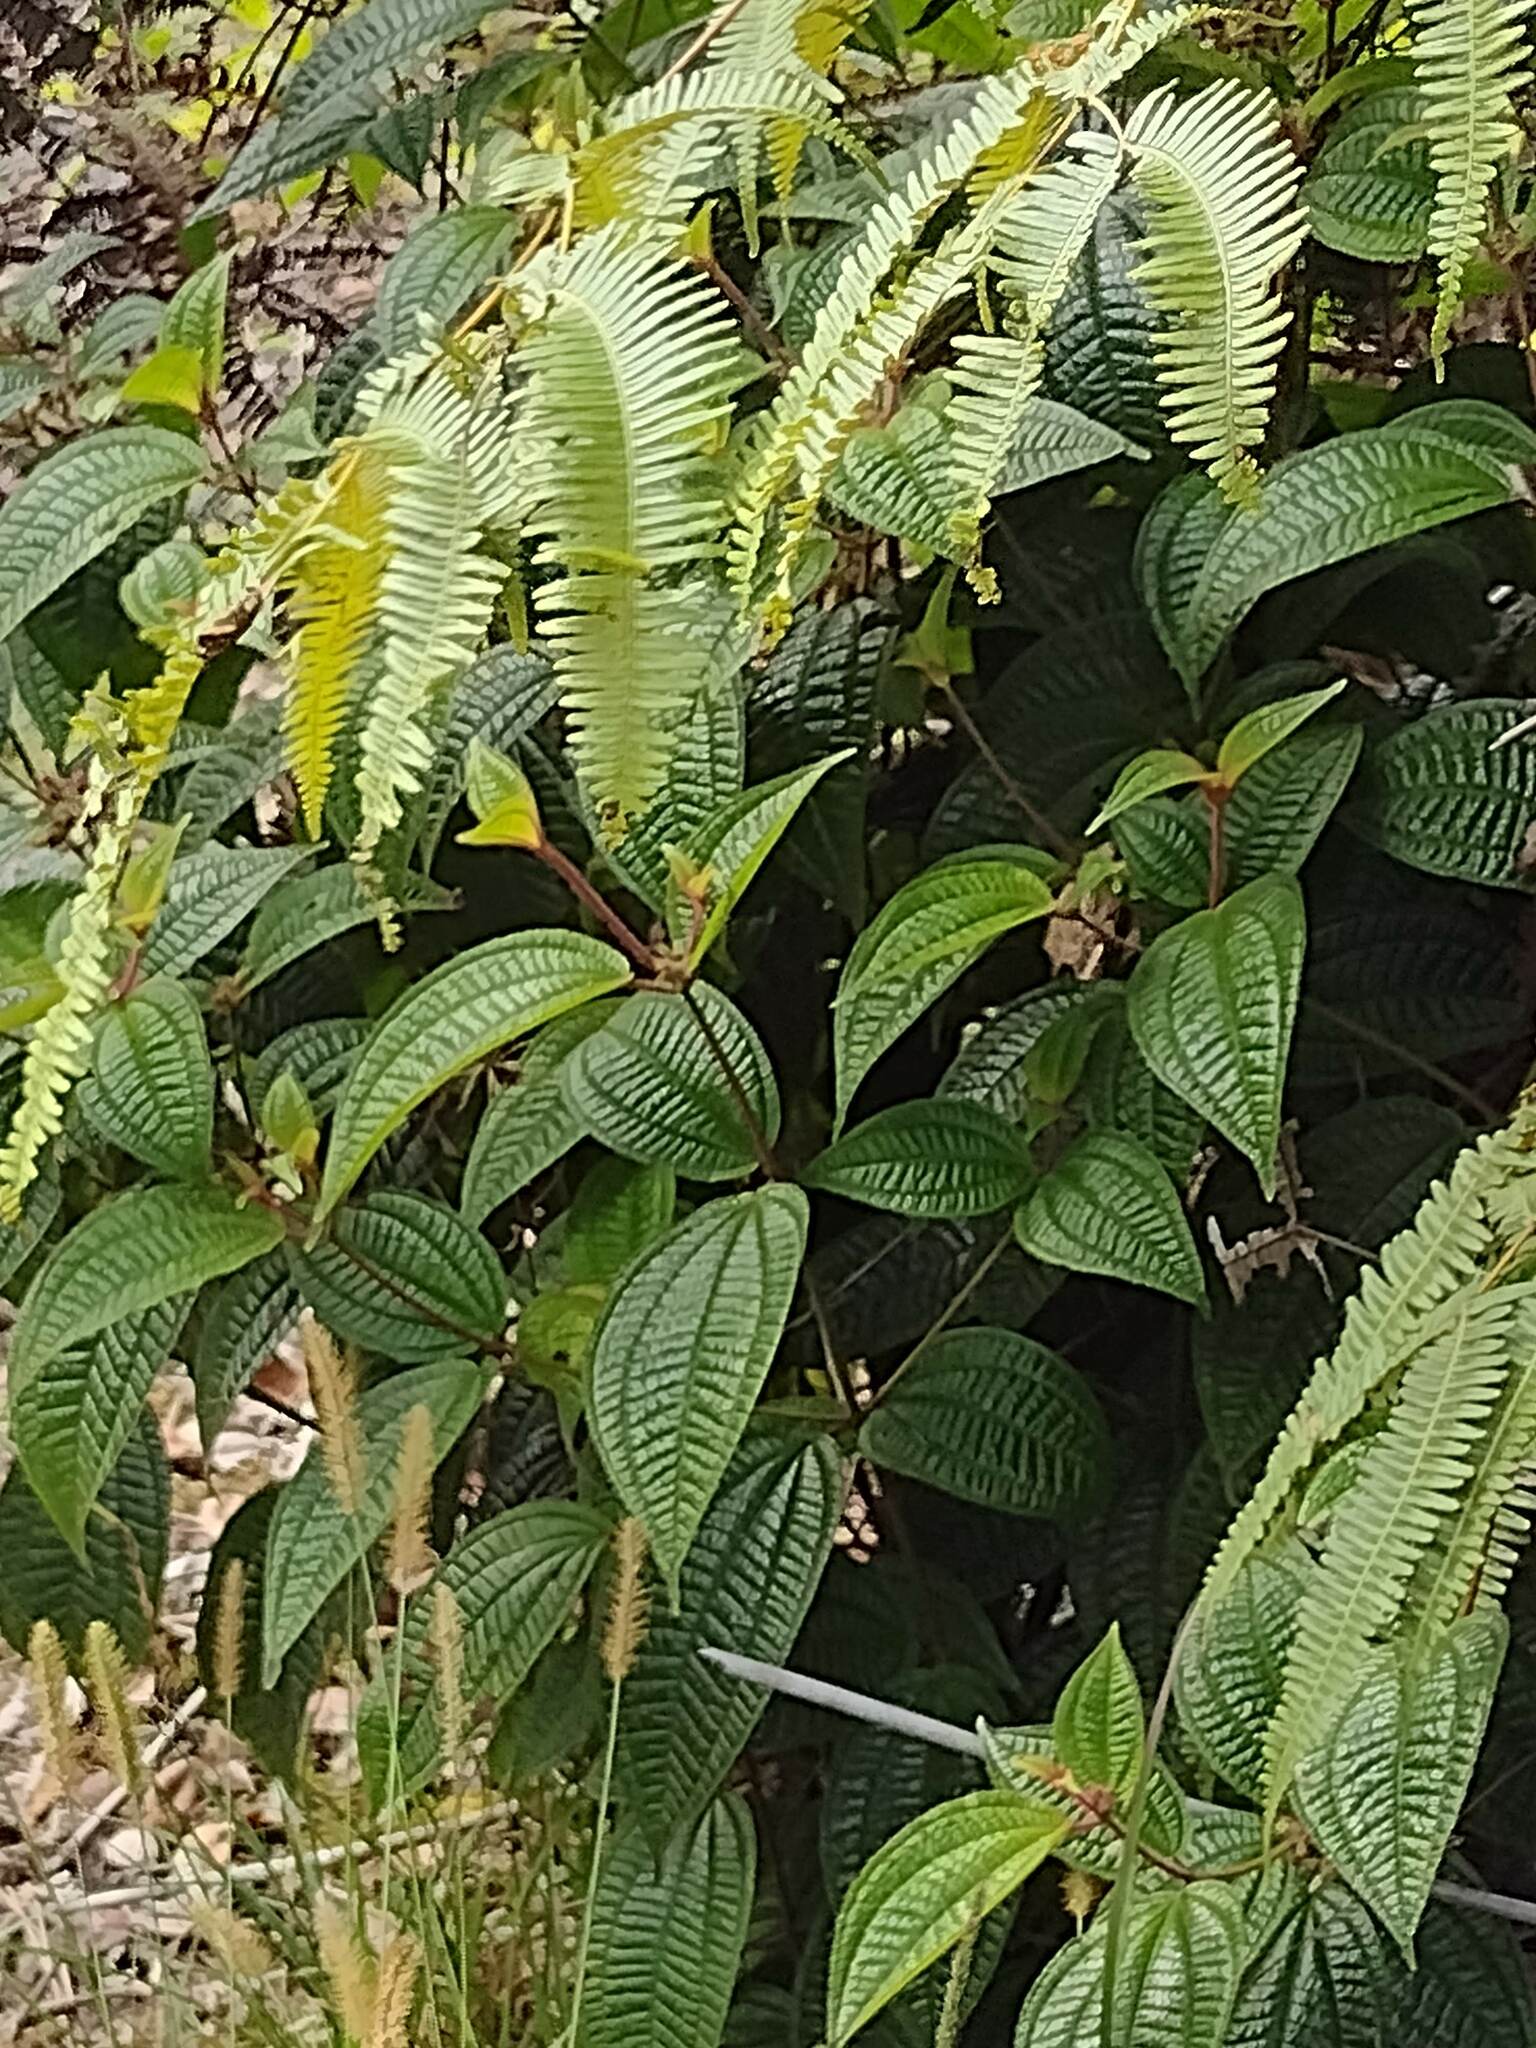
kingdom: Plantae
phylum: Tracheophyta
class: Magnoliopsida
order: Myrtales
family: Melastomataceae
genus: Miconia
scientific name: Miconia crenata
